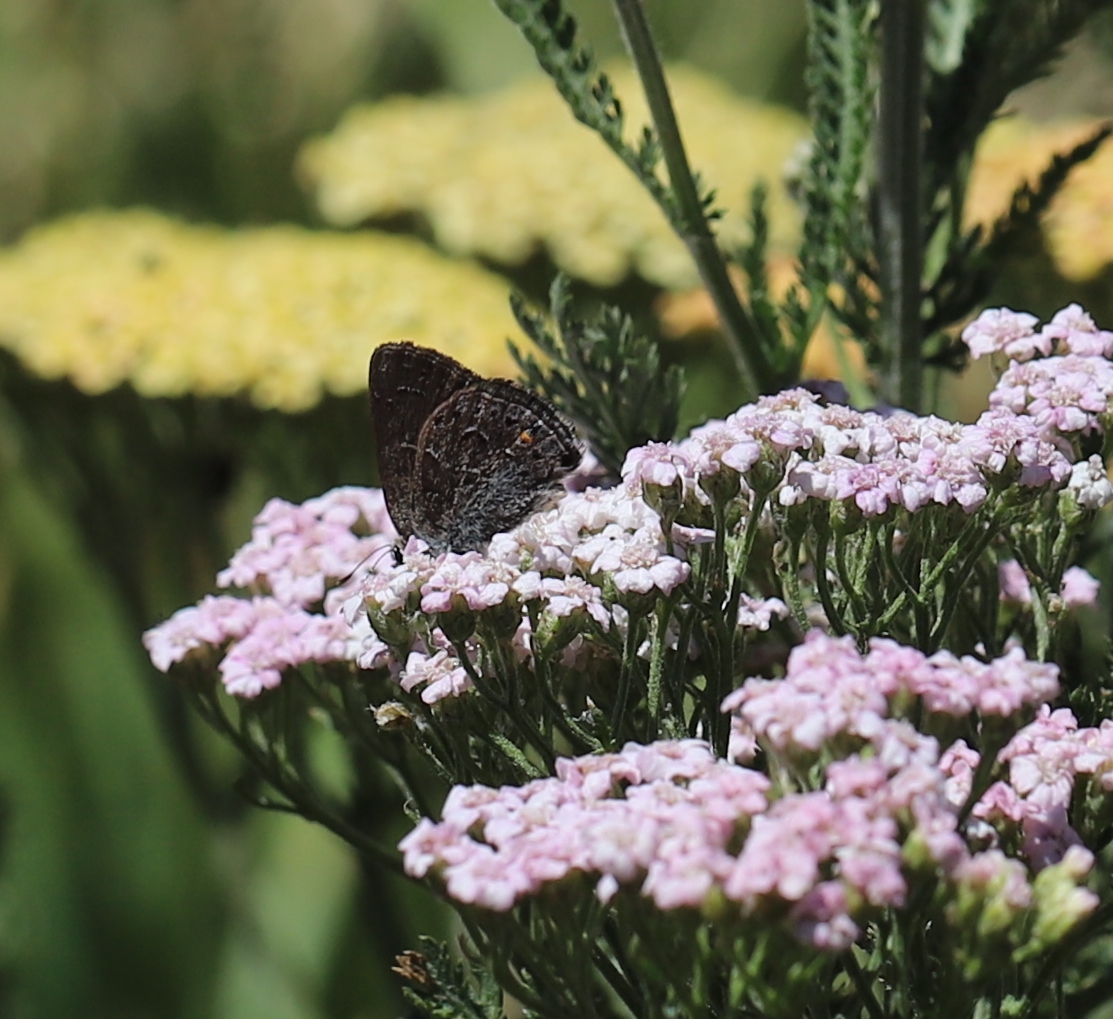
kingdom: Animalia
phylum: Arthropoda
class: Insecta
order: Lepidoptera
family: Lycaenidae
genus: Satyrium
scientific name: Satyrium behrii
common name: Behr's hairstreak
